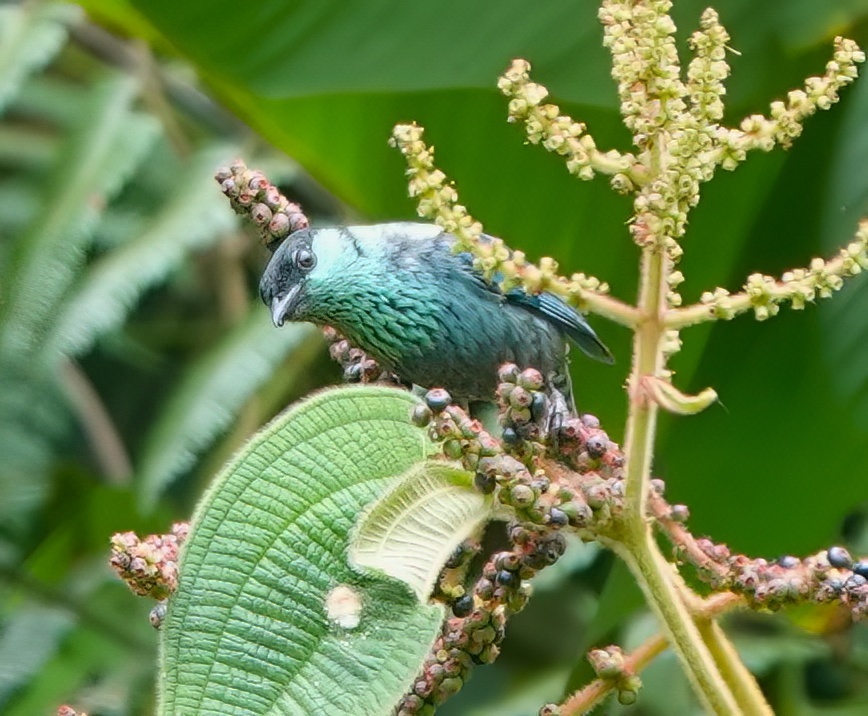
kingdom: Animalia
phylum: Chordata
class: Aves
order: Passeriformes
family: Thraupidae
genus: Stilpnia
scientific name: Stilpnia heinei
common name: Black-capped tanager
